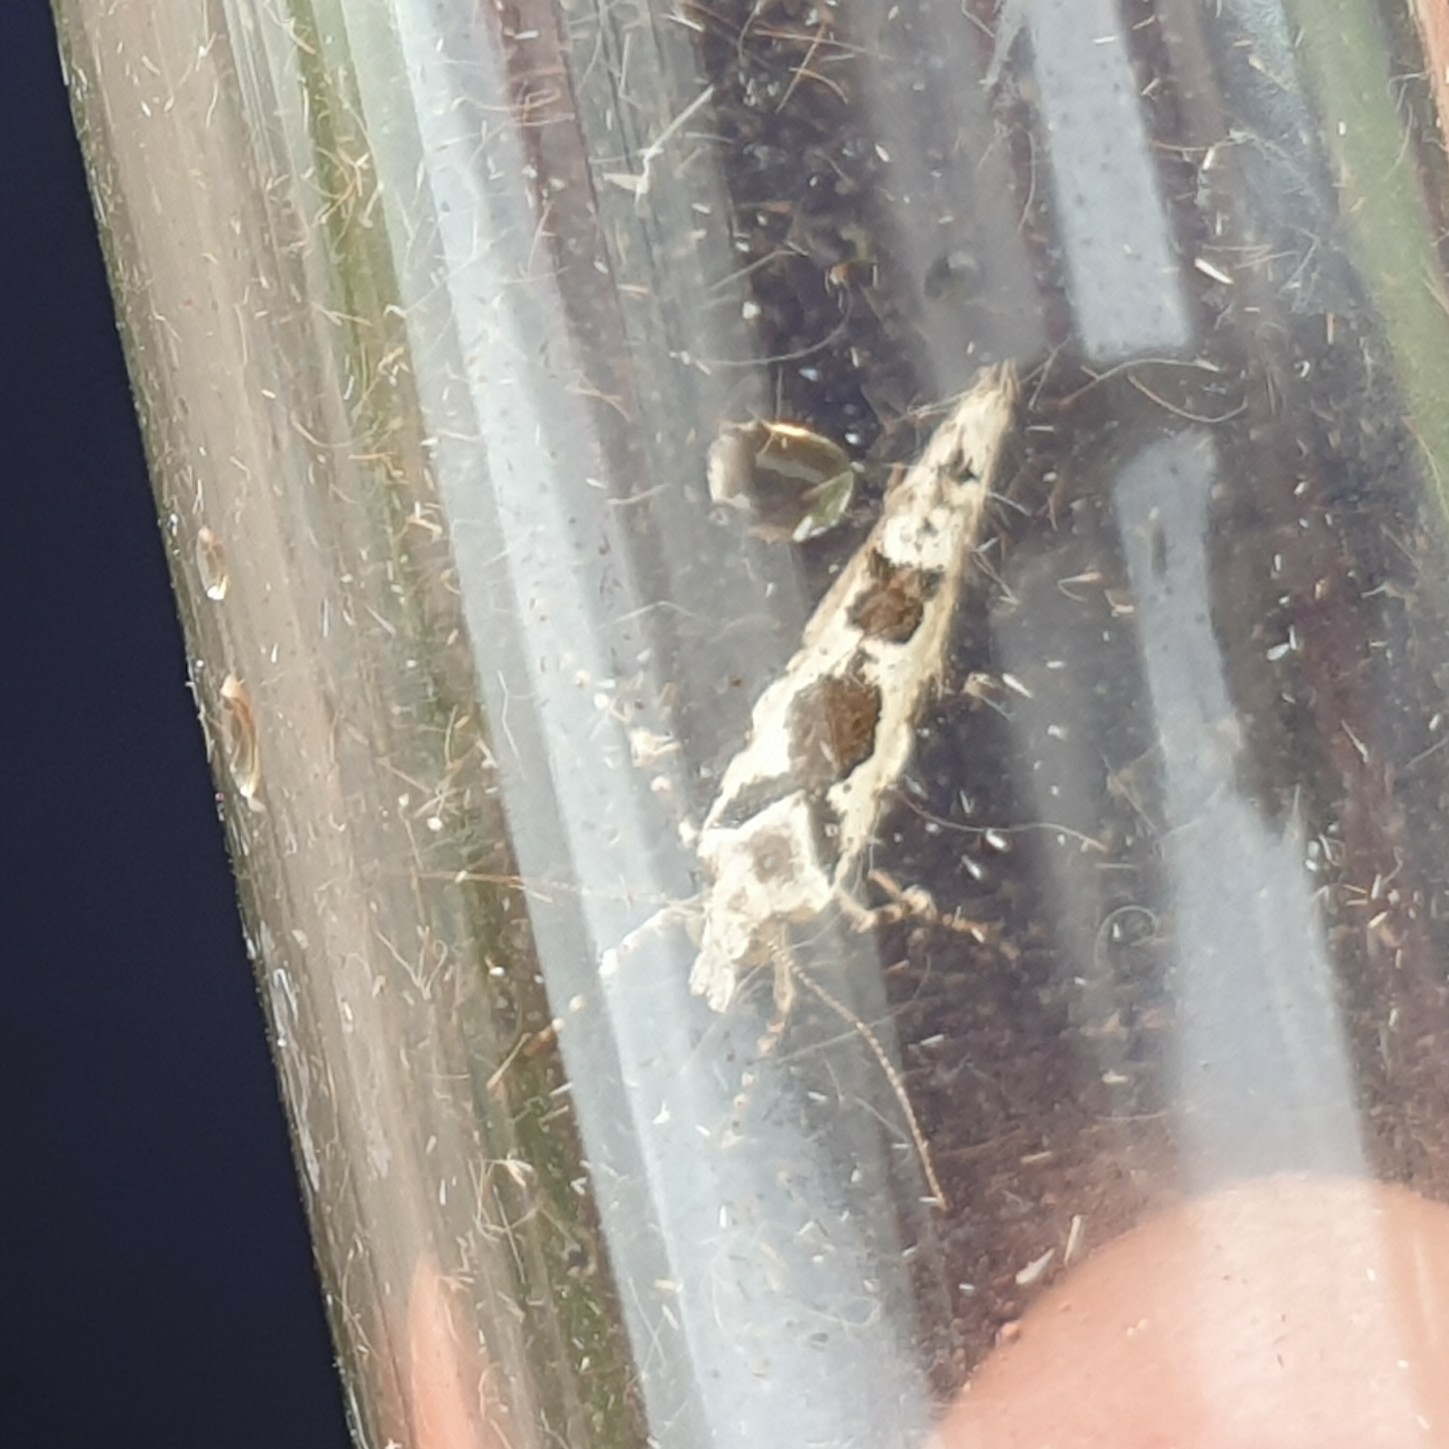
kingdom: Animalia
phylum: Arthropoda
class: Insecta
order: Lepidoptera
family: Plutellidae
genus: Ypsolophus
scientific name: Ypsolophus sequella
